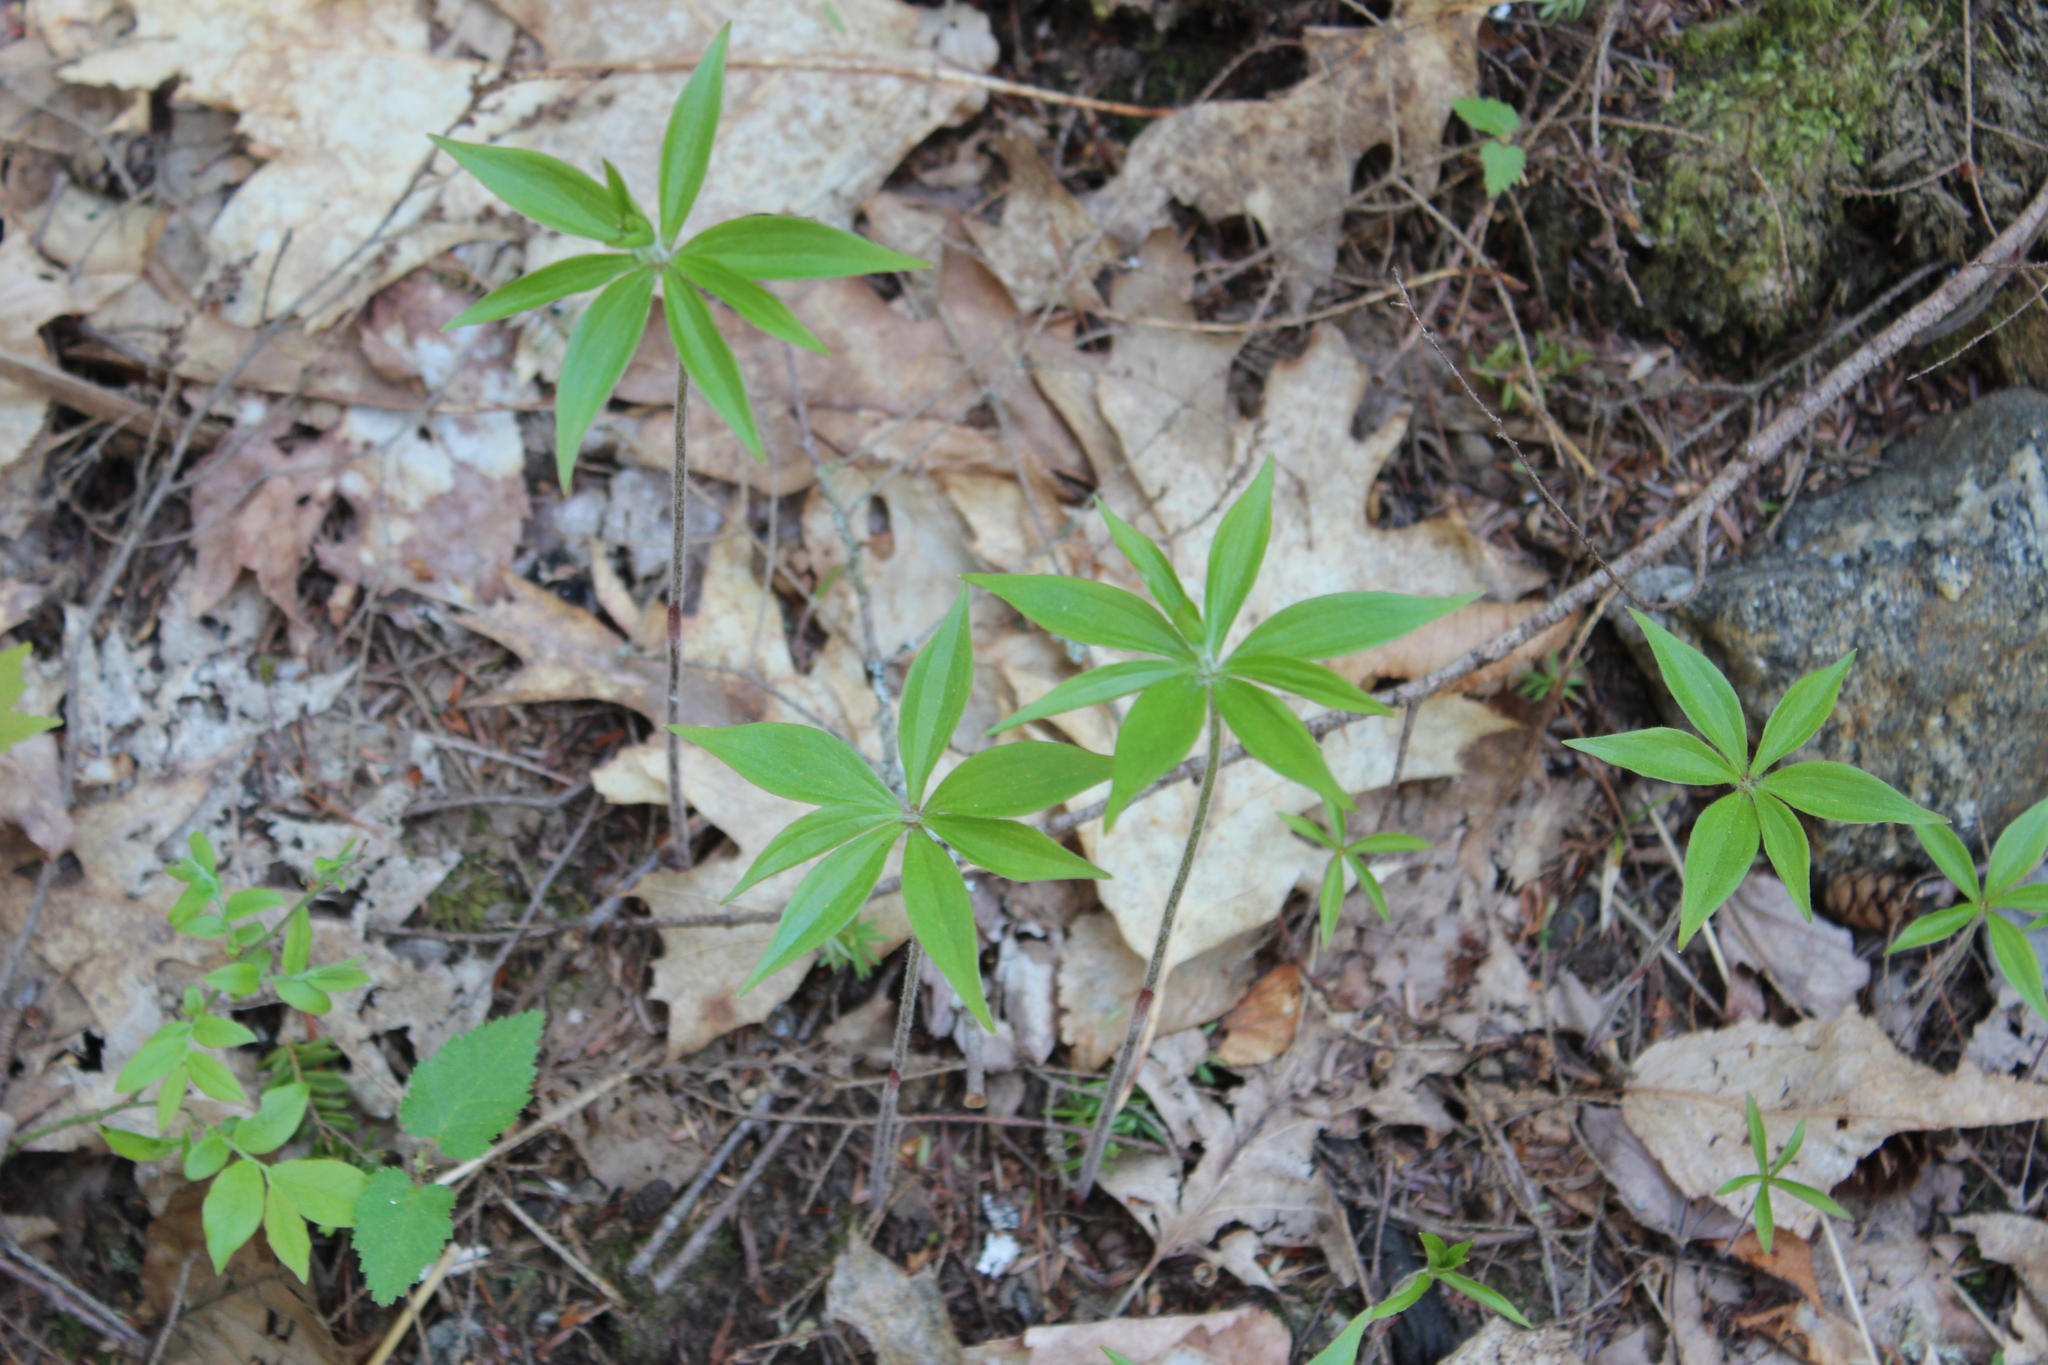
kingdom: Plantae
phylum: Tracheophyta
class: Liliopsida
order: Liliales
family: Liliaceae
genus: Medeola
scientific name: Medeola virginiana
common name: Indian cucumber-root
